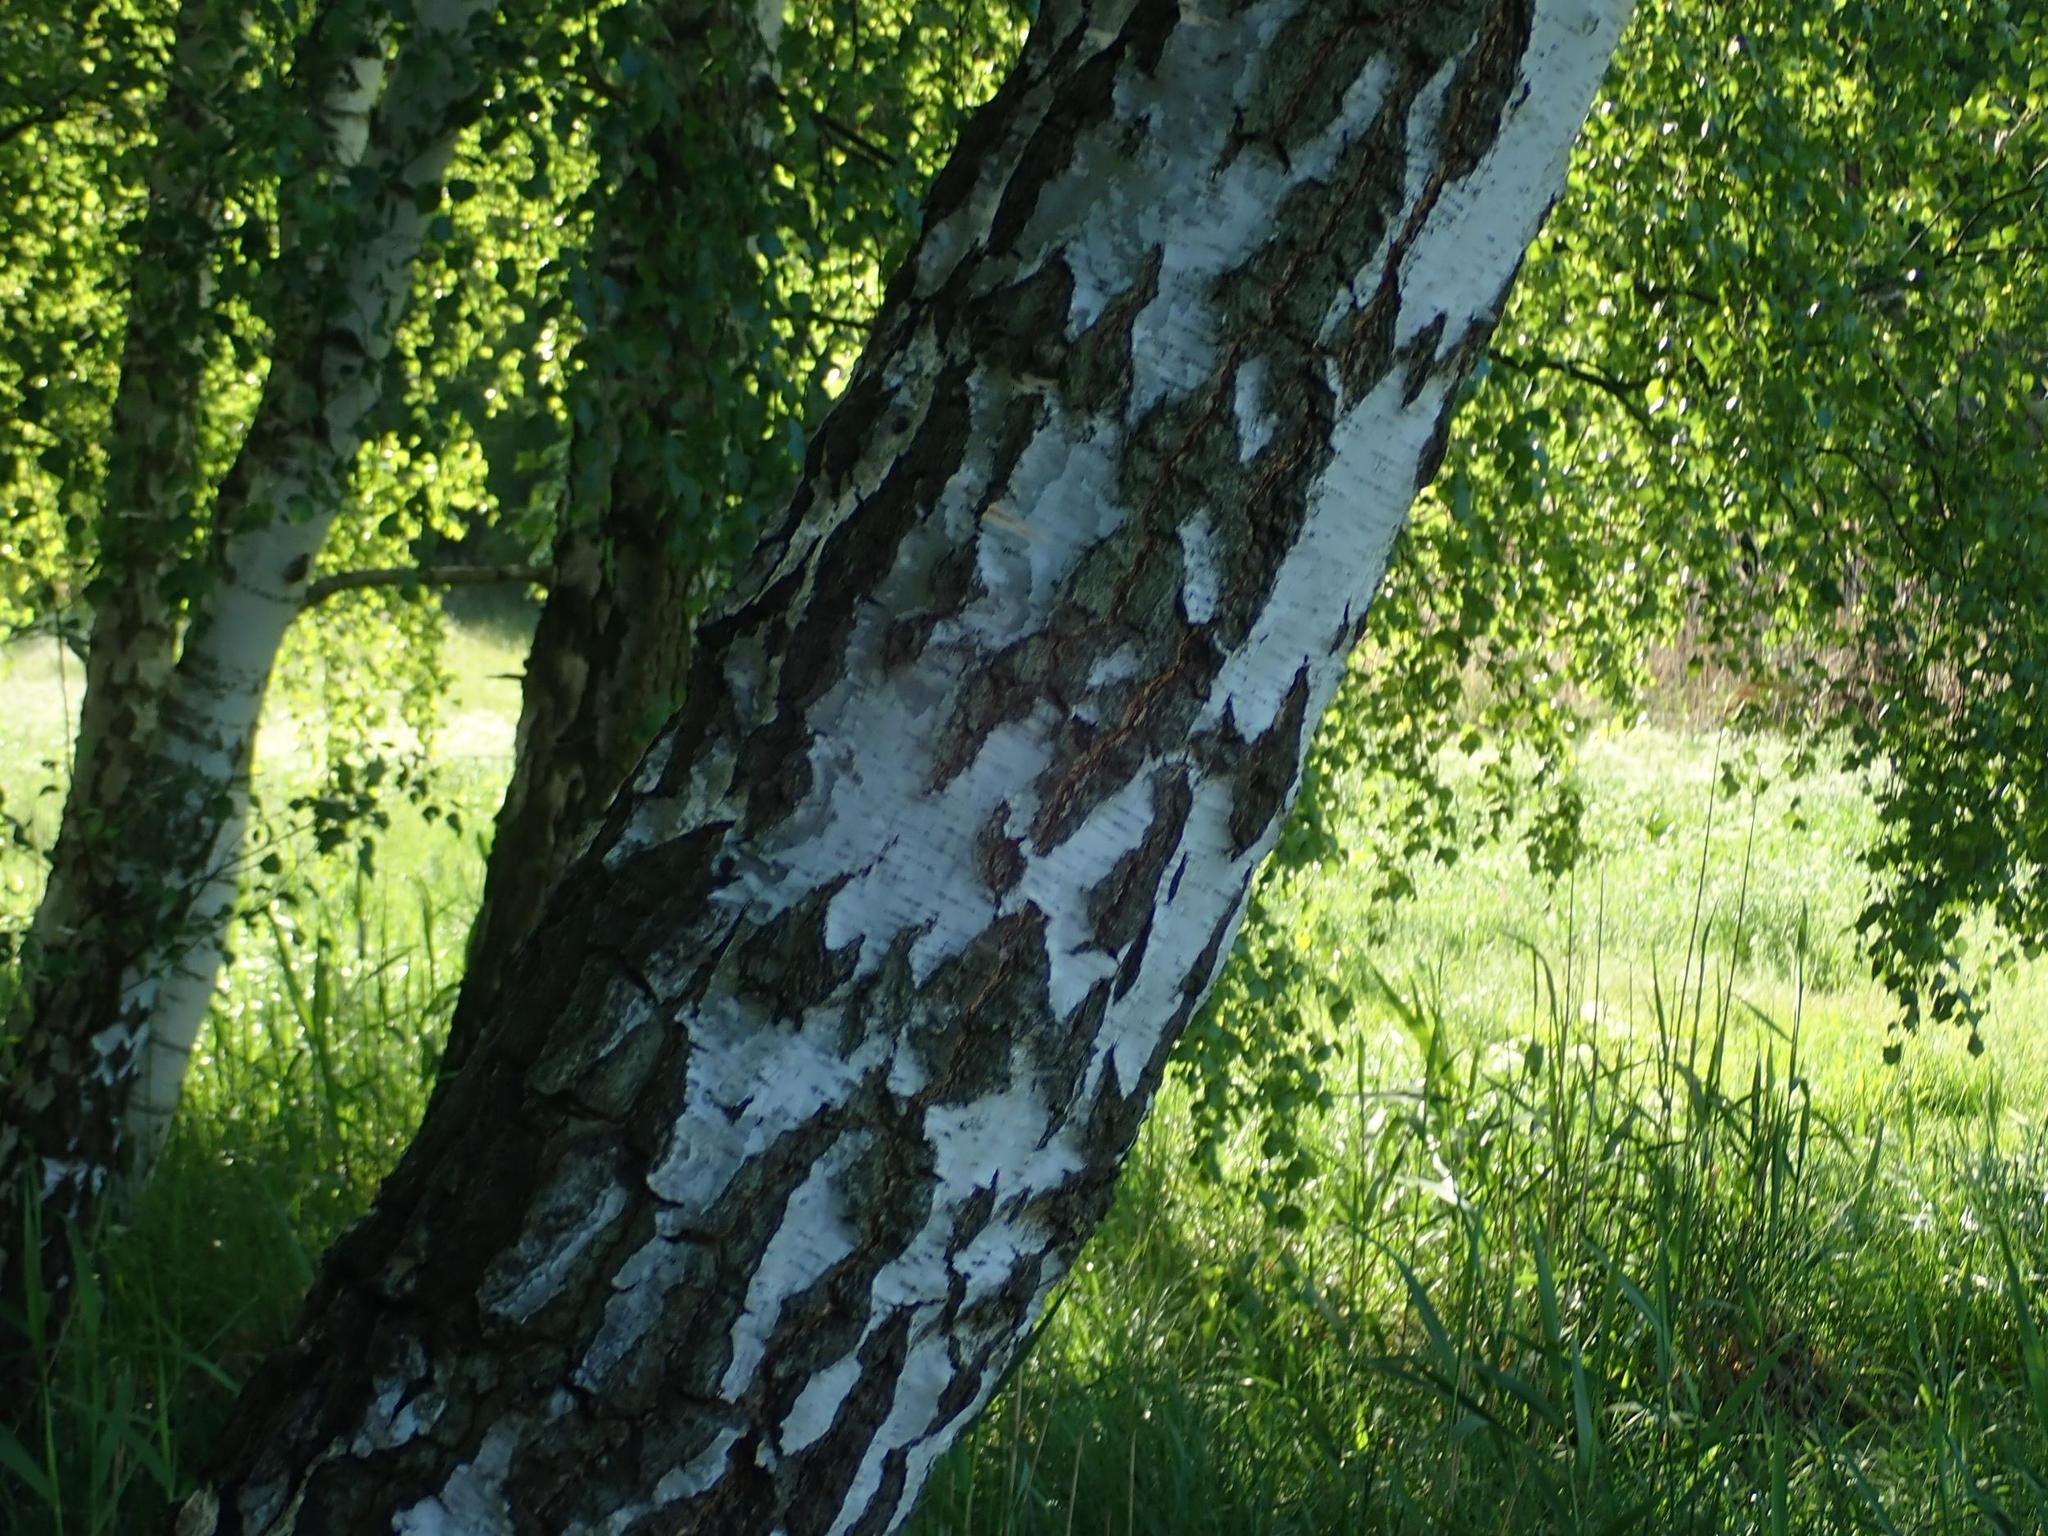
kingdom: Plantae
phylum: Tracheophyta
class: Magnoliopsida
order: Fagales
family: Betulaceae
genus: Betula
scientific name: Betula pendula
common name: Silver birch
